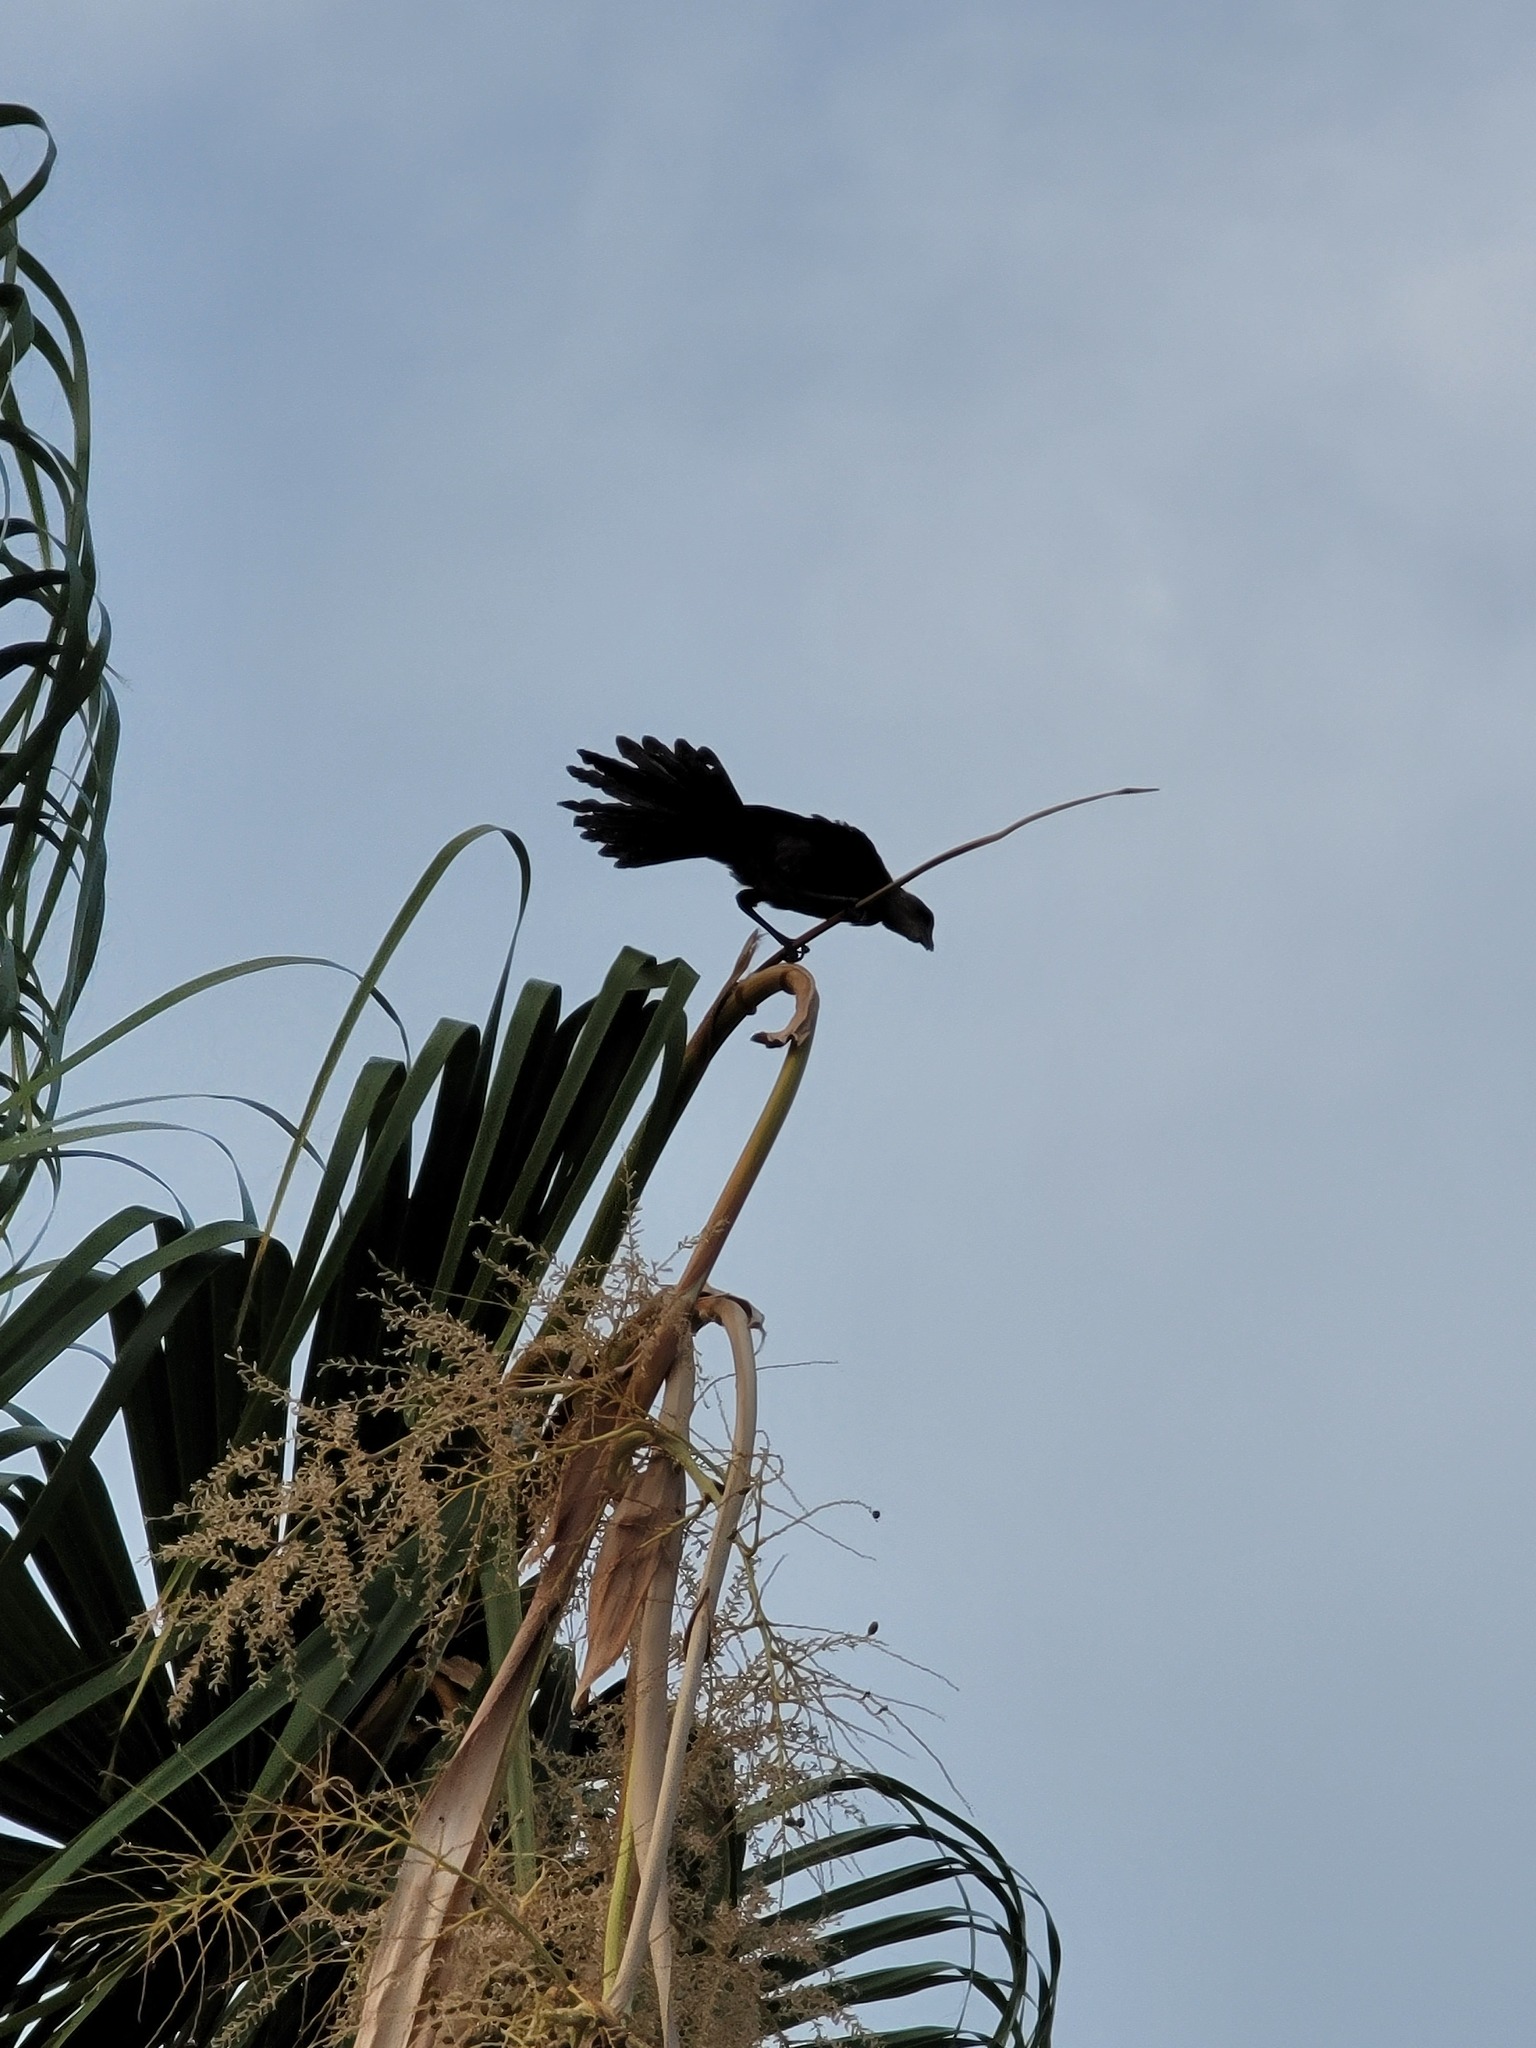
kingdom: Animalia
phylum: Chordata
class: Aves
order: Passeriformes
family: Icteridae
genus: Quiscalus
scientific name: Quiscalus mexicanus
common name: Great-tailed grackle
